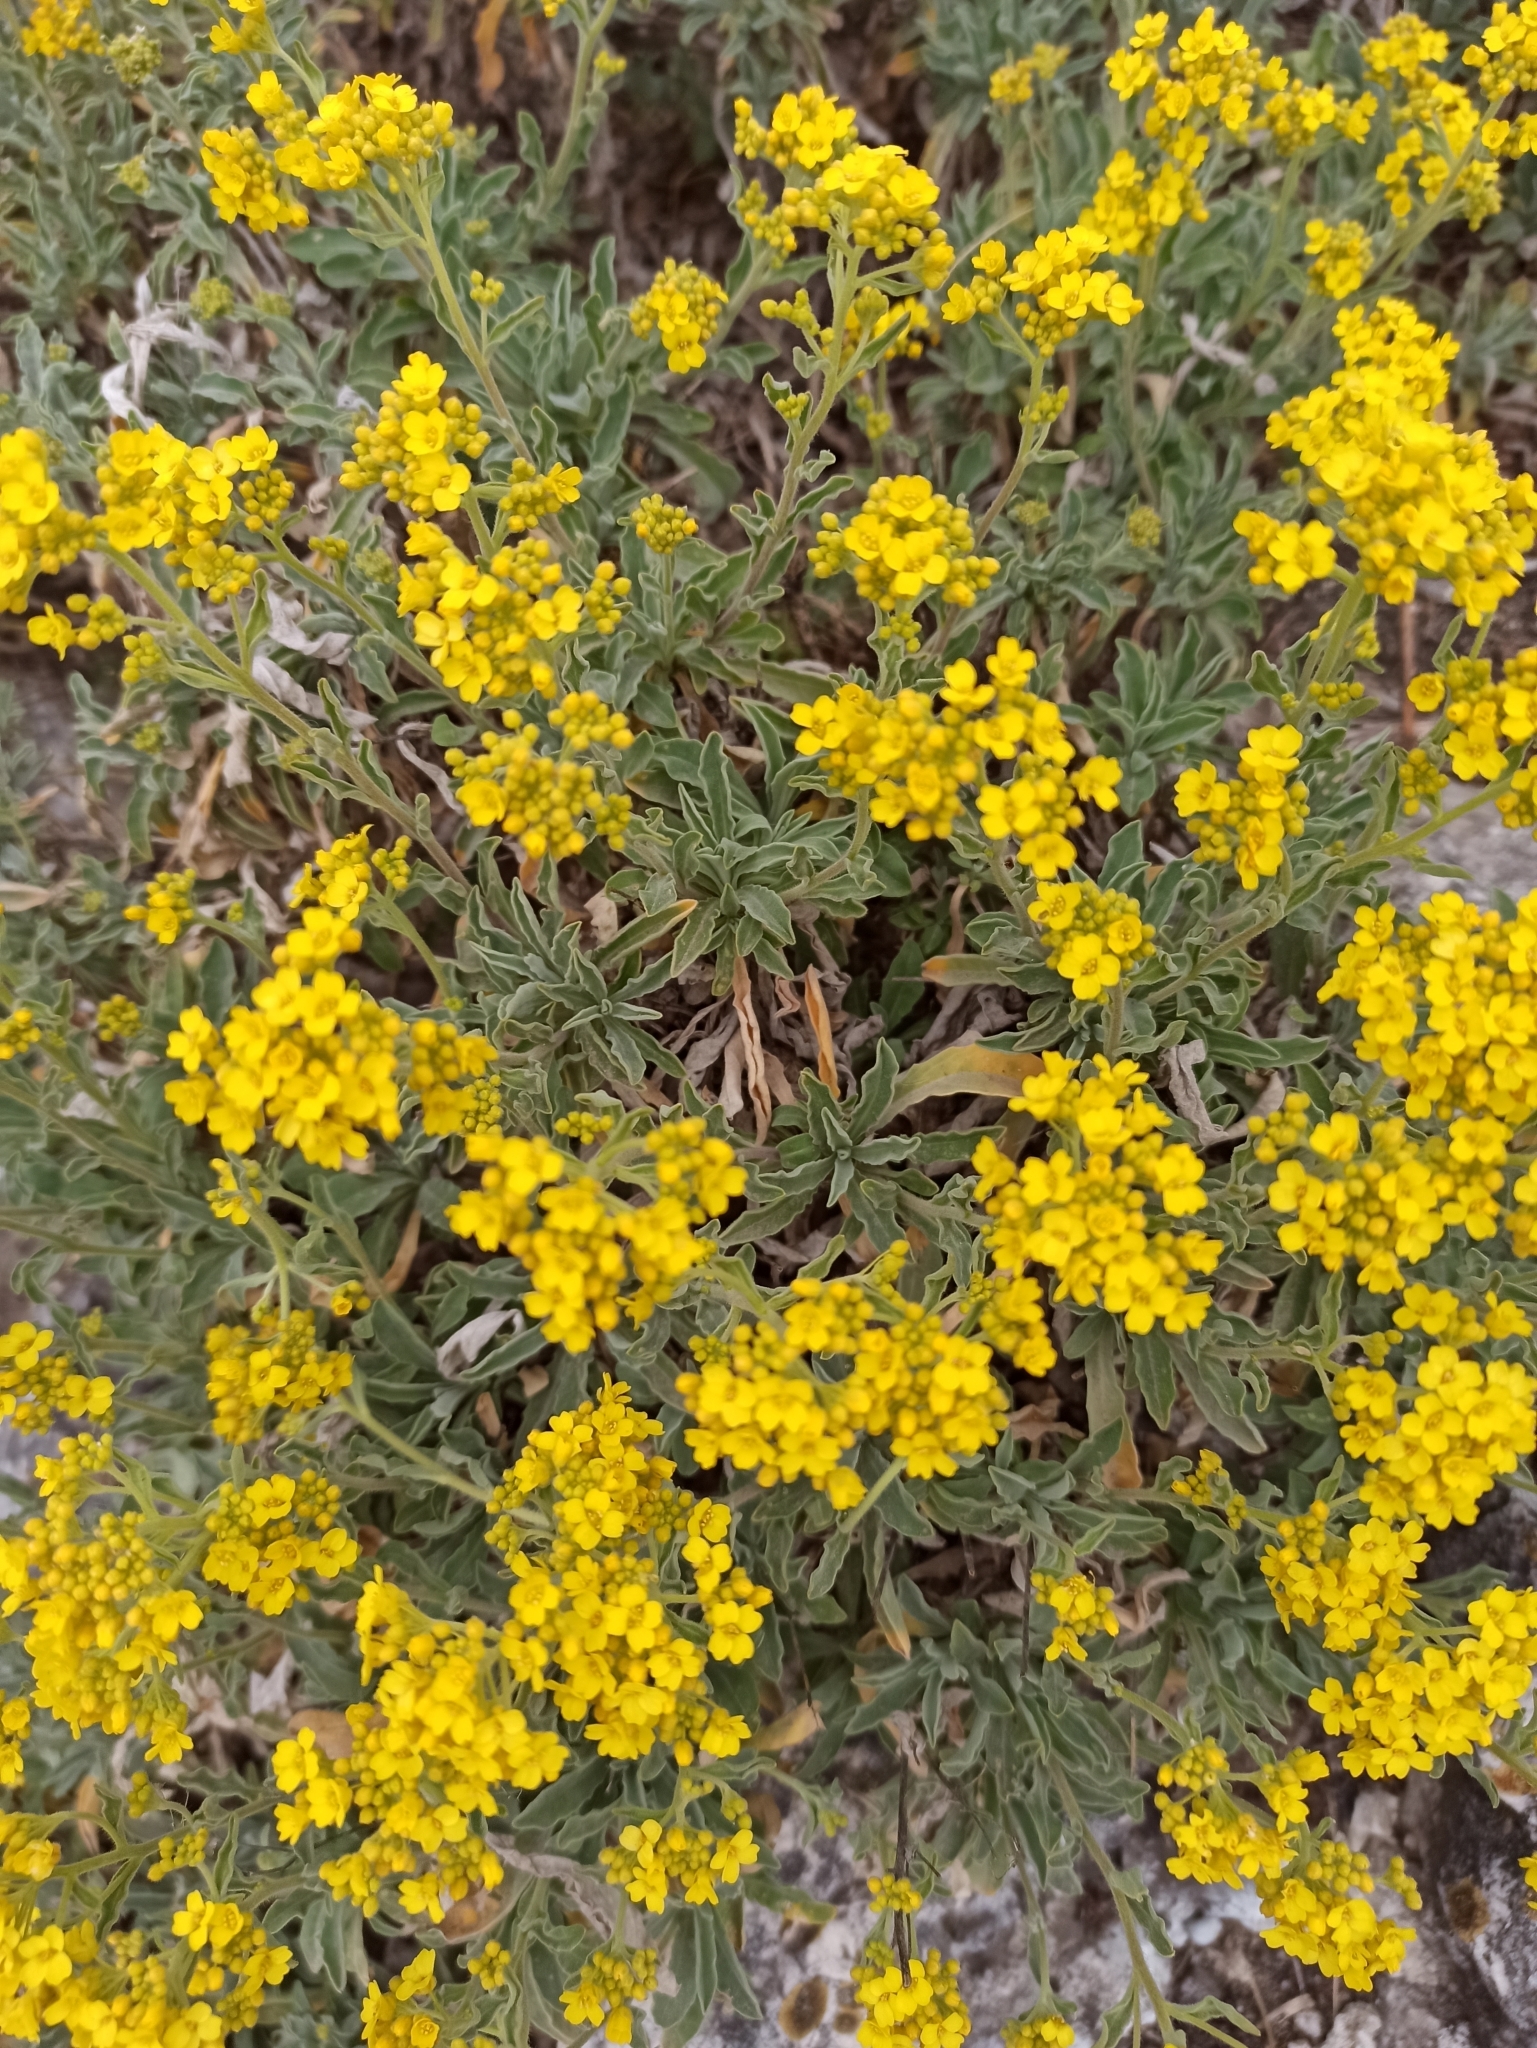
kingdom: Plantae
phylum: Tracheophyta
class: Magnoliopsida
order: Brassicales
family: Brassicaceae
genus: Aurinia
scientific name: Aurinia saxatilis
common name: Golden-tuft alyssum
